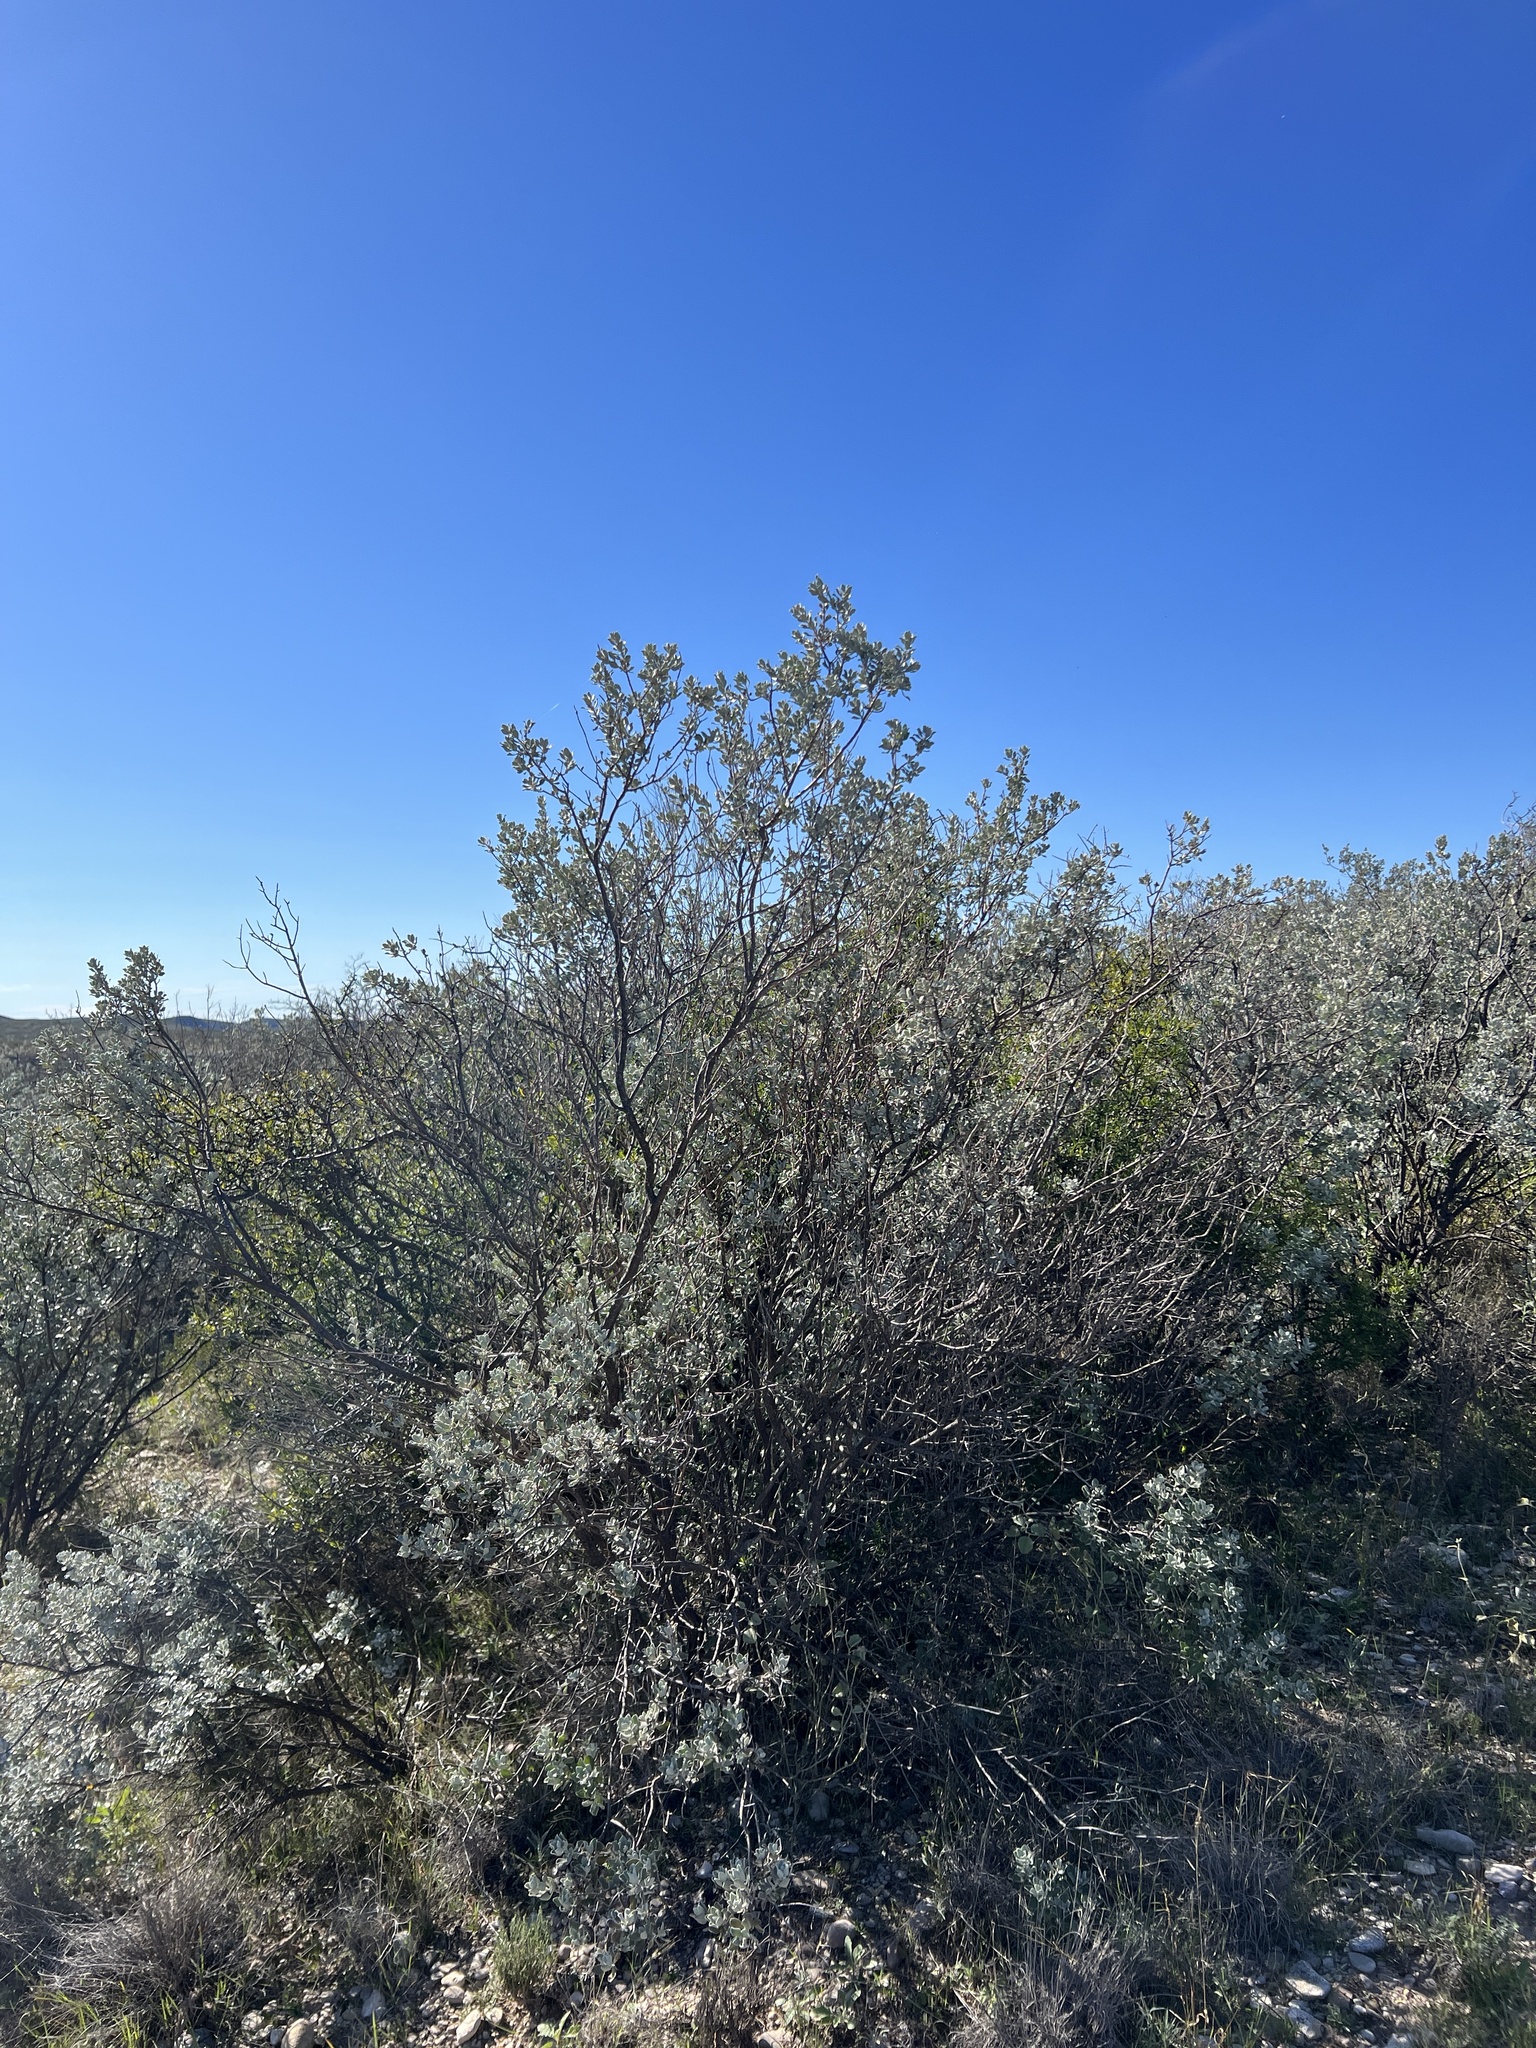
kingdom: Plantae
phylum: Tracheophyta
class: Magnoliopsida
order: Lamiales
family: Scrophulariaceae
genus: Leucophyllum
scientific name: Leucophyllum frutescens
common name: Texas silverleaf
